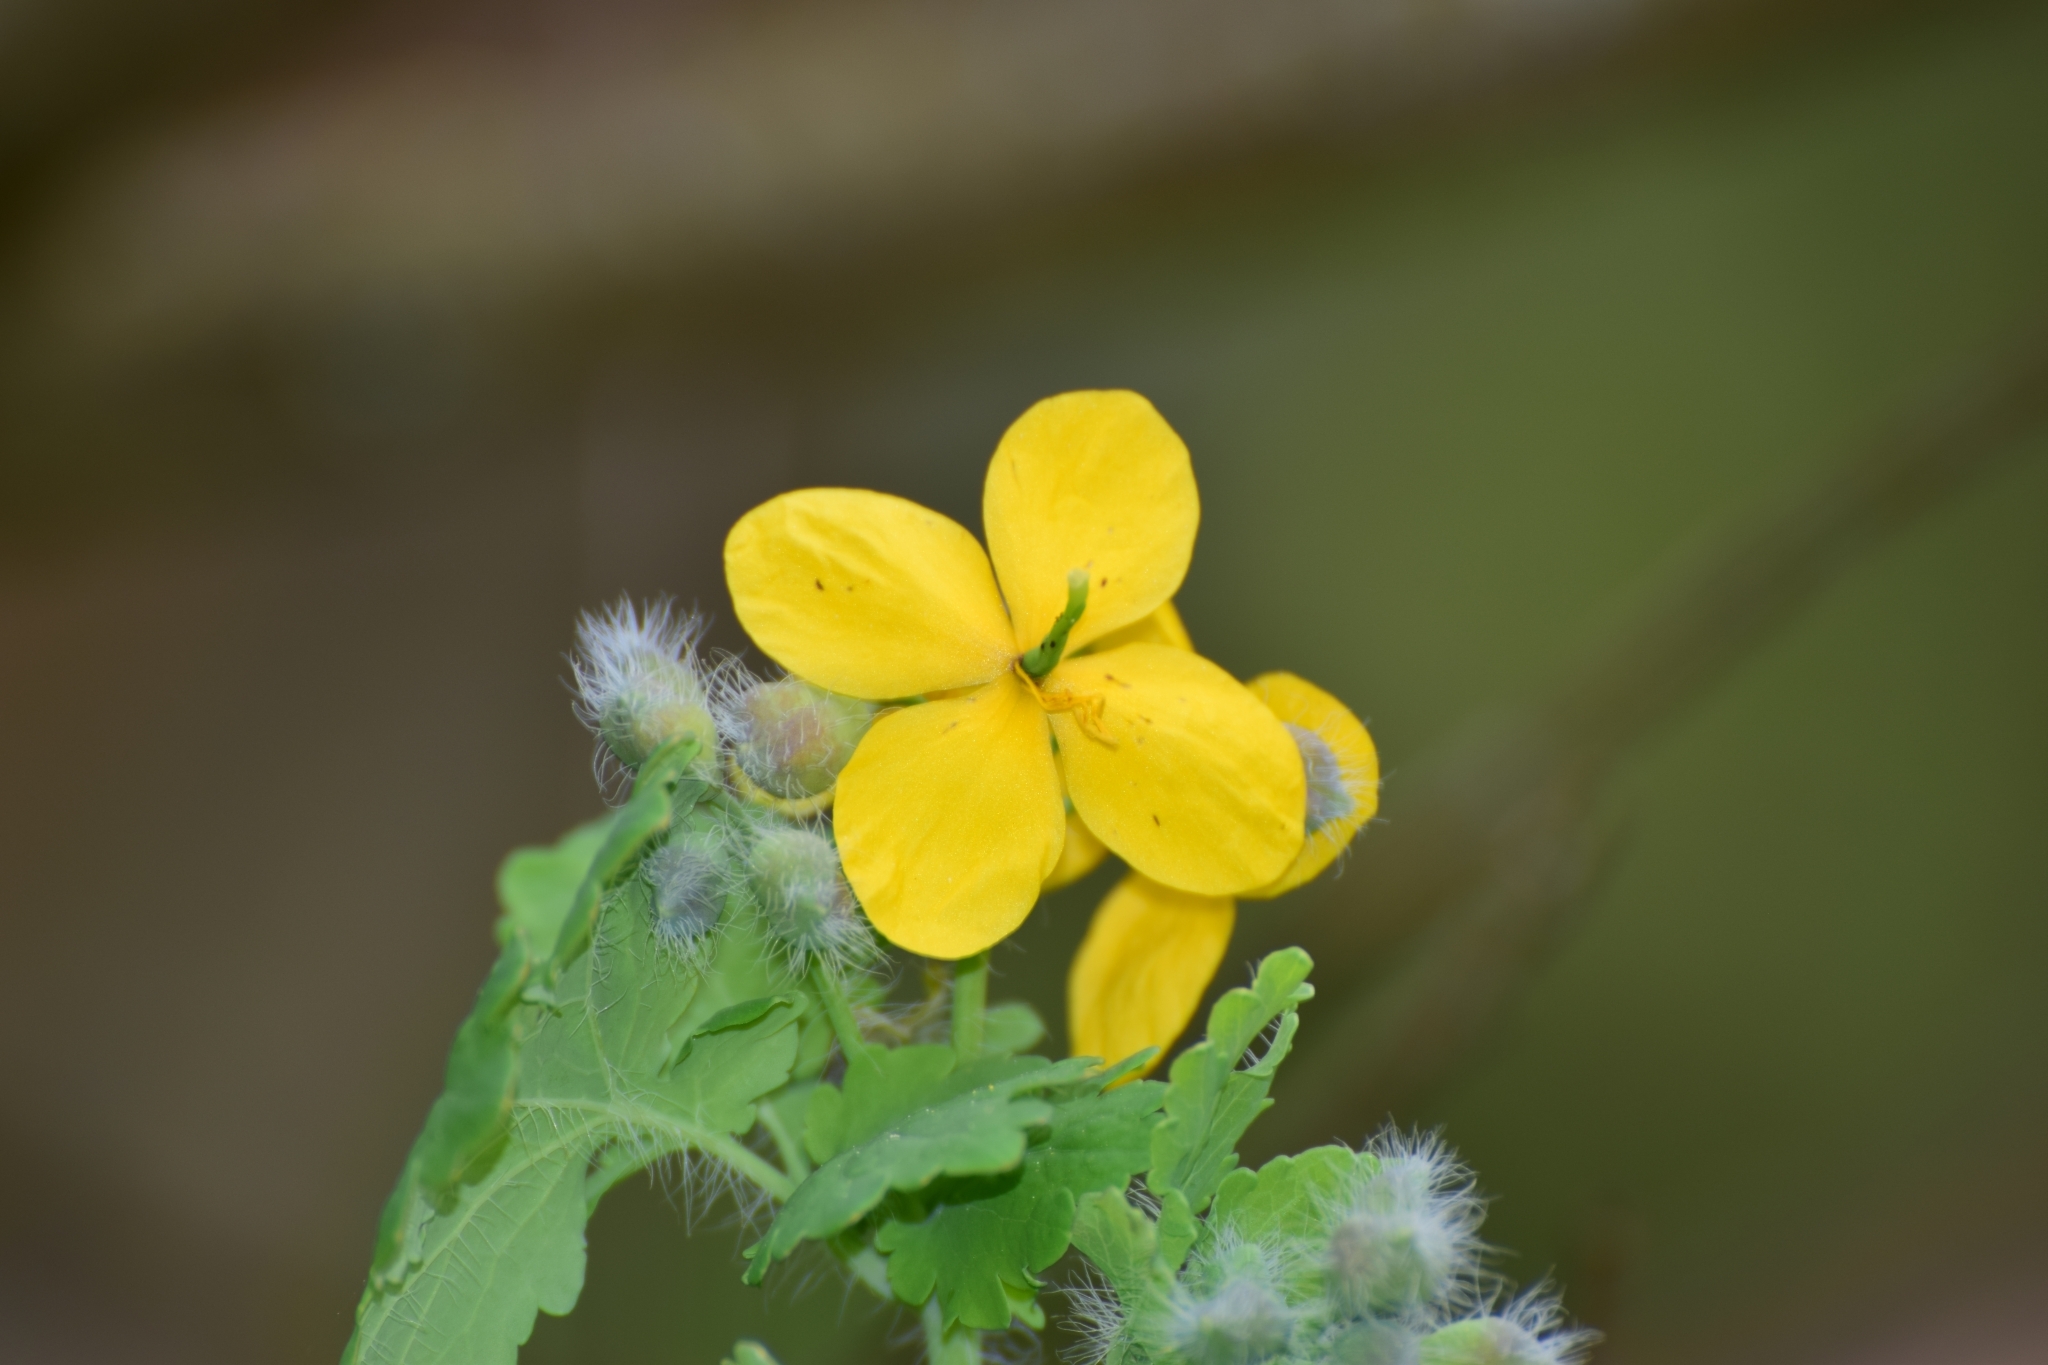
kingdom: Plantae
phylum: Tracheophyta
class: Magnoliopsida
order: Ranunculales
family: Papaveraceae
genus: Chelidonium
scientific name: Chelidonium majus
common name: Greater celandine
